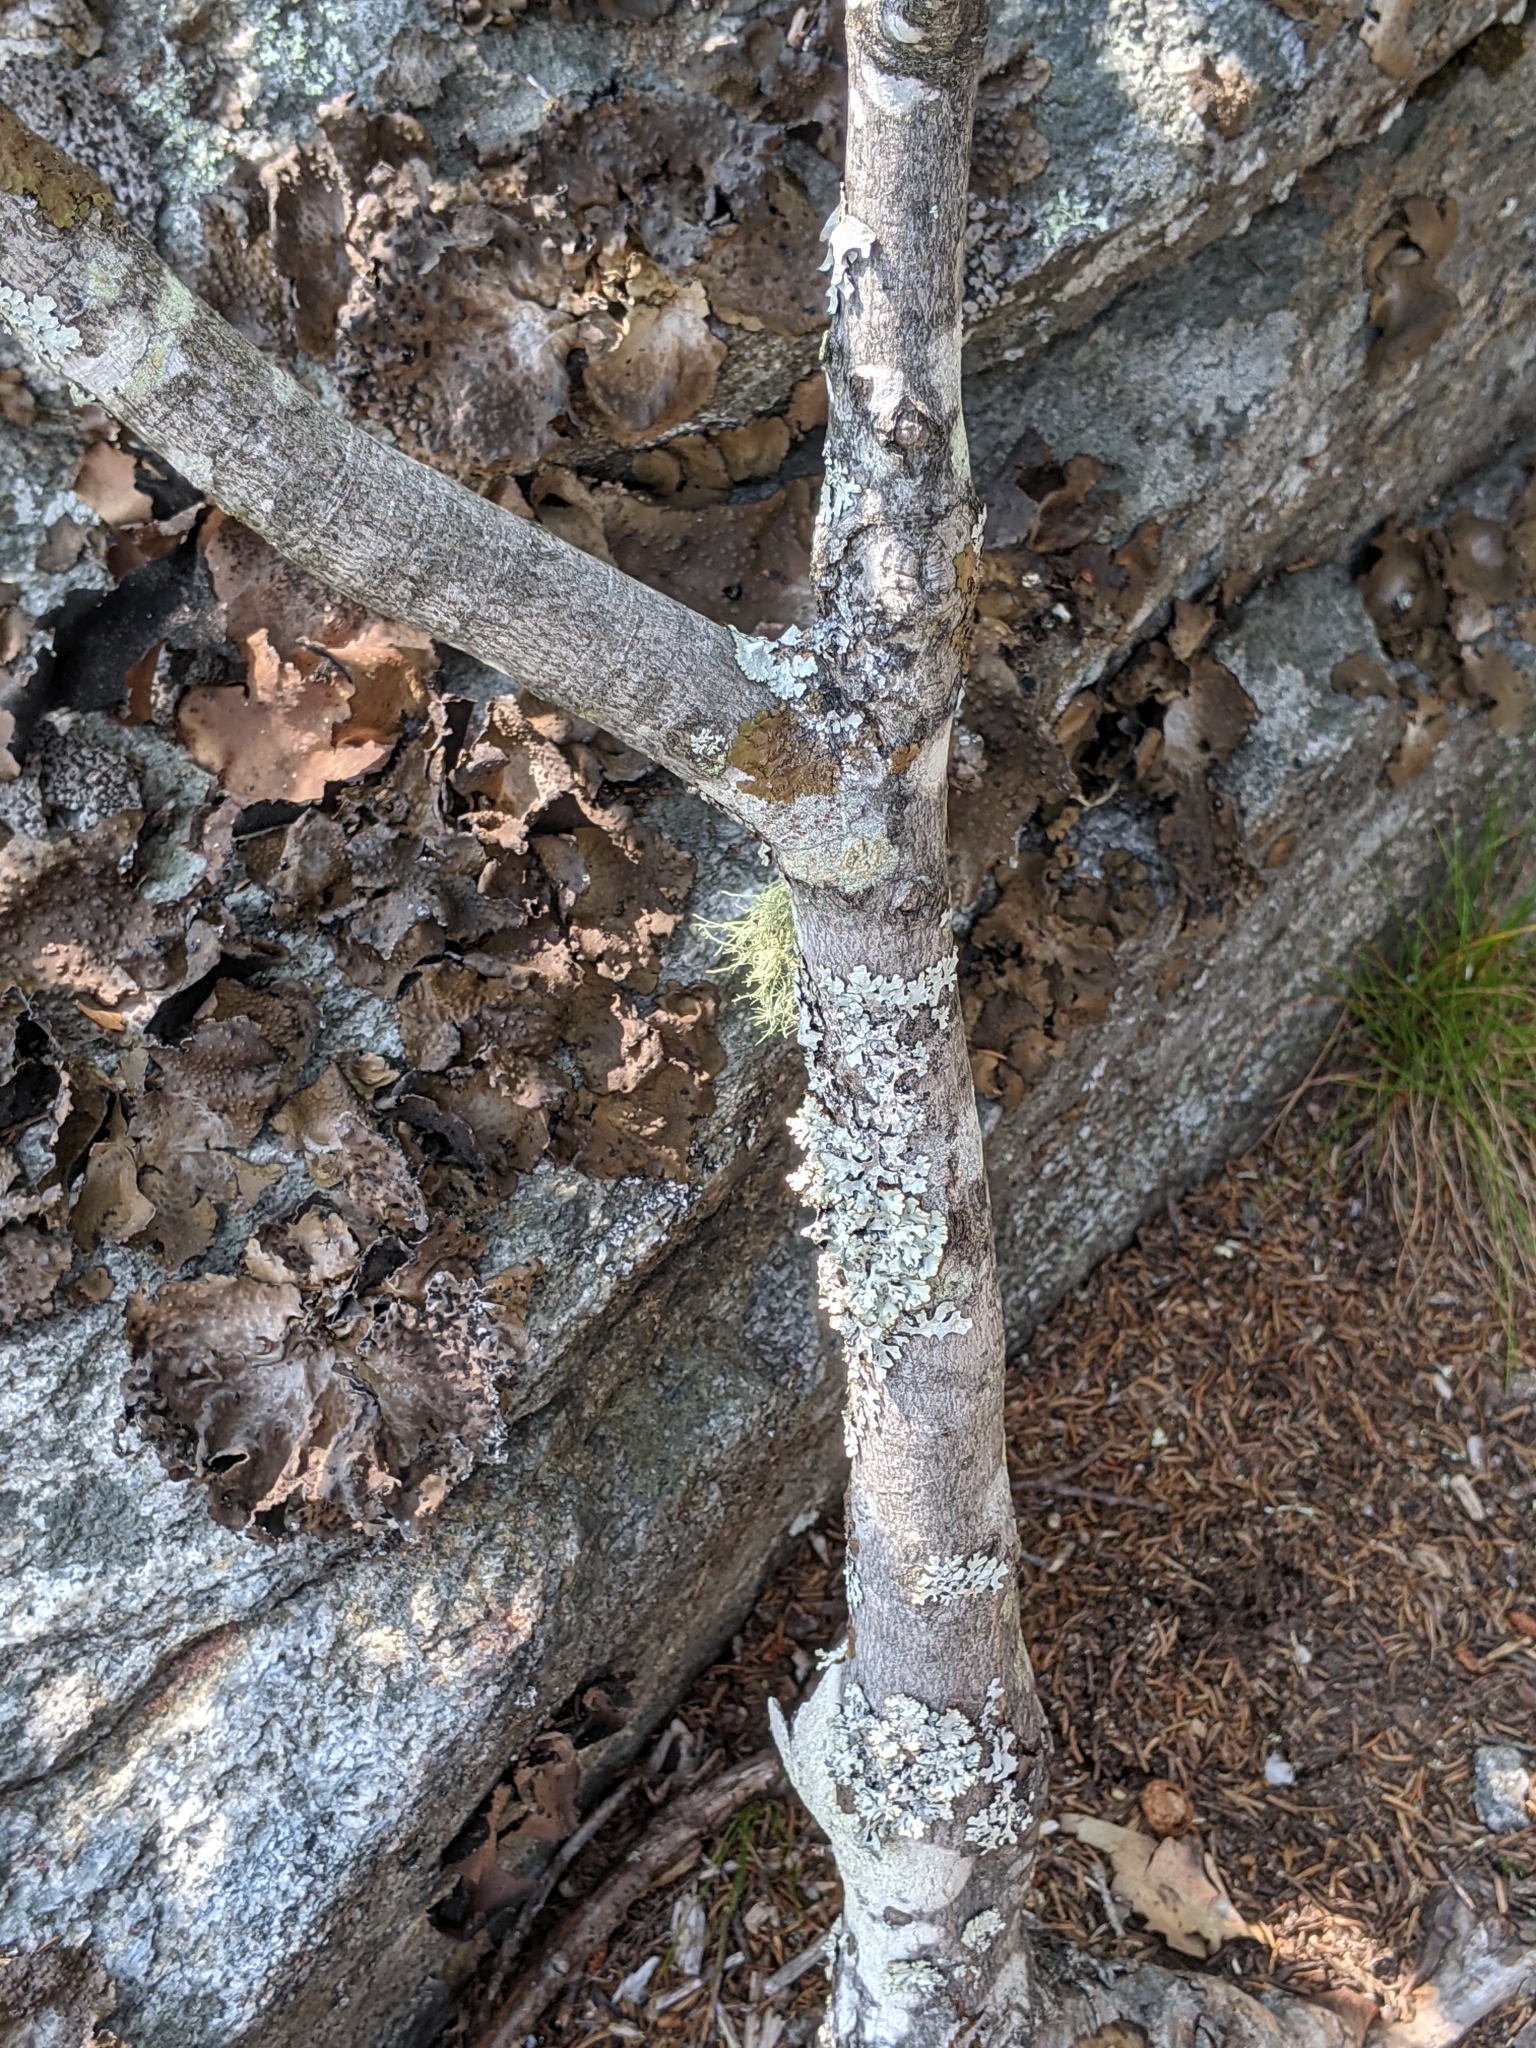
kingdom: Plantae
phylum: Tracheophyta
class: Magnoliopsida
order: Sapindales
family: Sapindaceae
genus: Acer
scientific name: Acer rubrum
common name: Red maple
